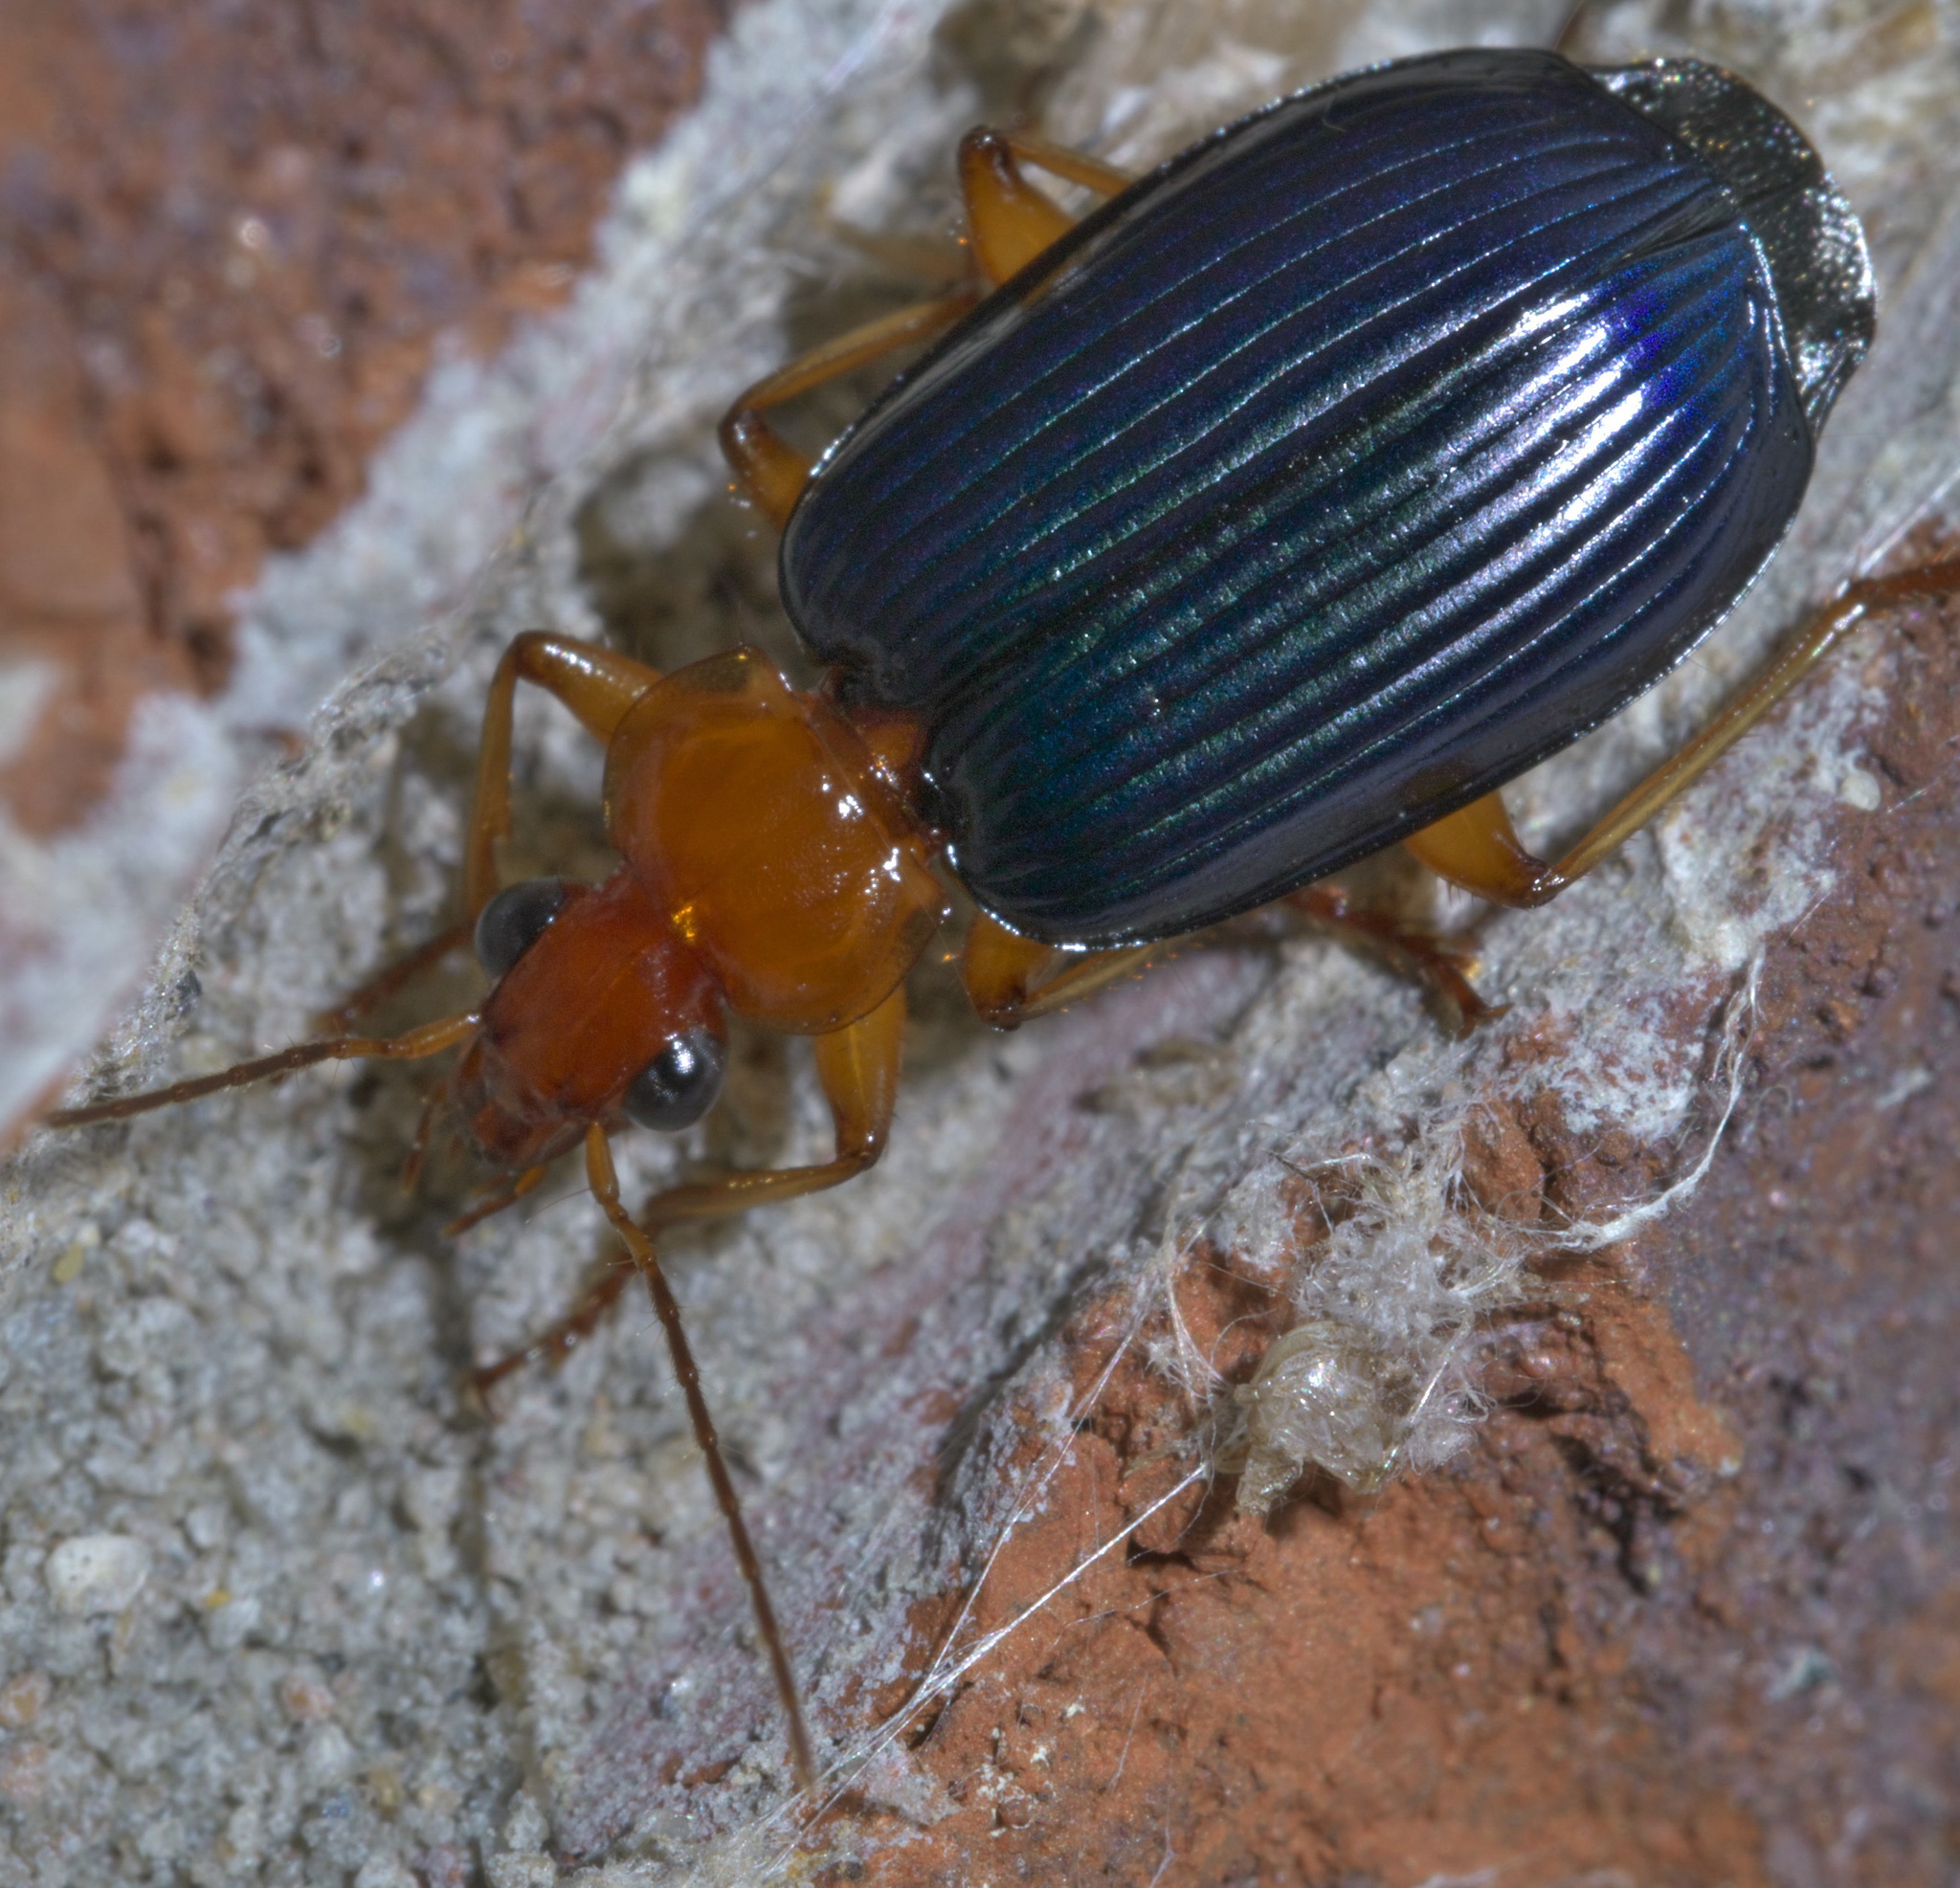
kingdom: Animalia
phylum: Arthropoda
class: Insecta
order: Coleoptera
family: Carabidae
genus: Lebia
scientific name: Lebia grandis
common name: Large foliage ground beetle
